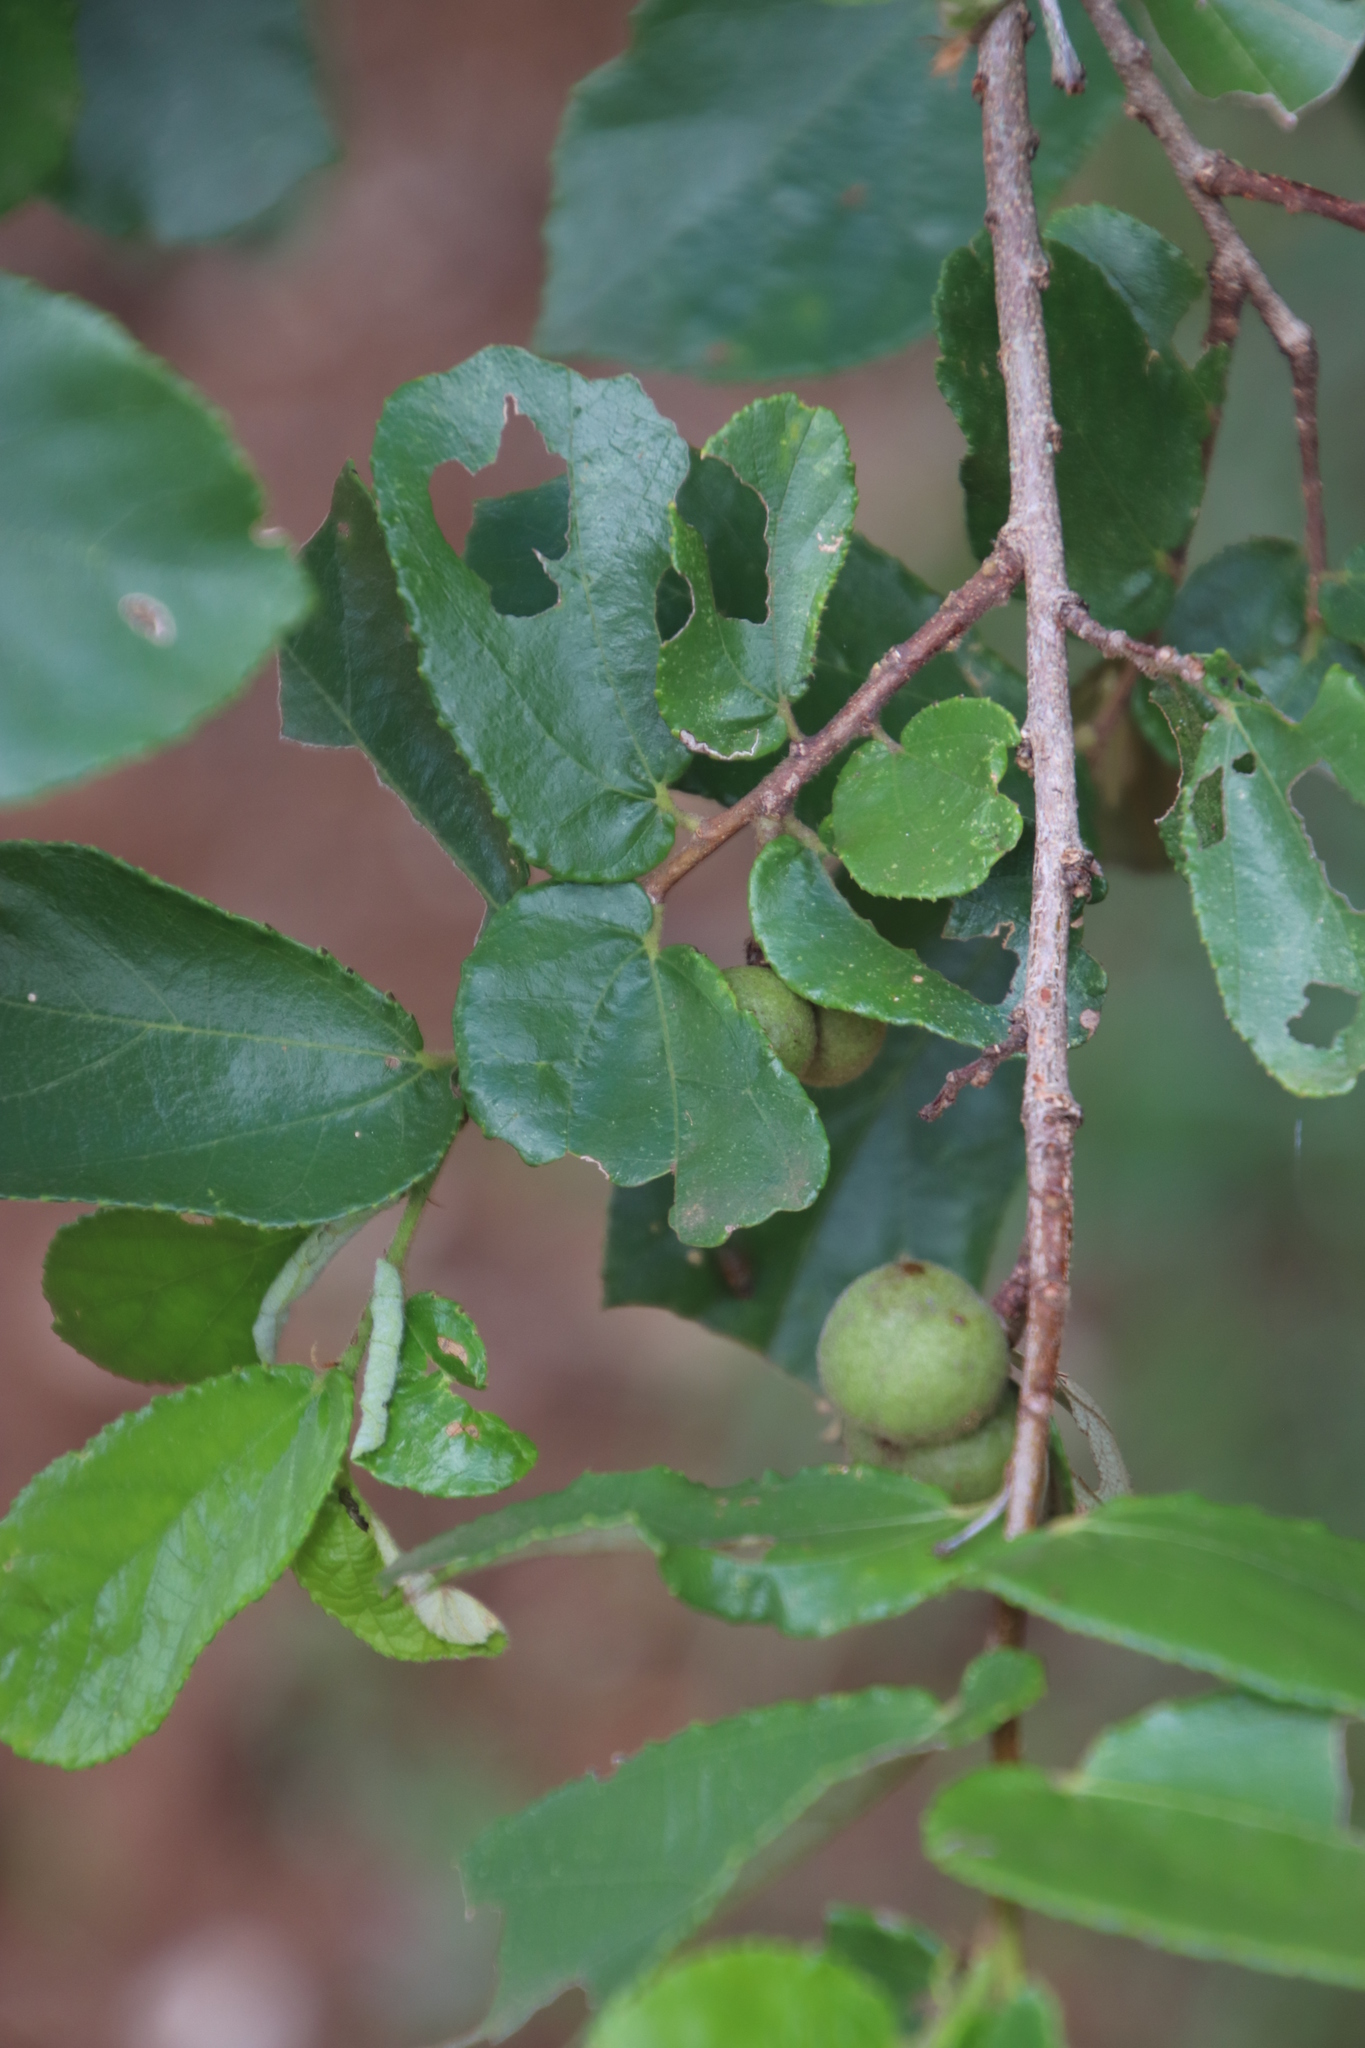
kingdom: Plantae
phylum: Tracheophyta
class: Magnoliopsida
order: Malvales
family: Malvaceae
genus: Grewia
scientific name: Grewia hexamita
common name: Giant raisin
